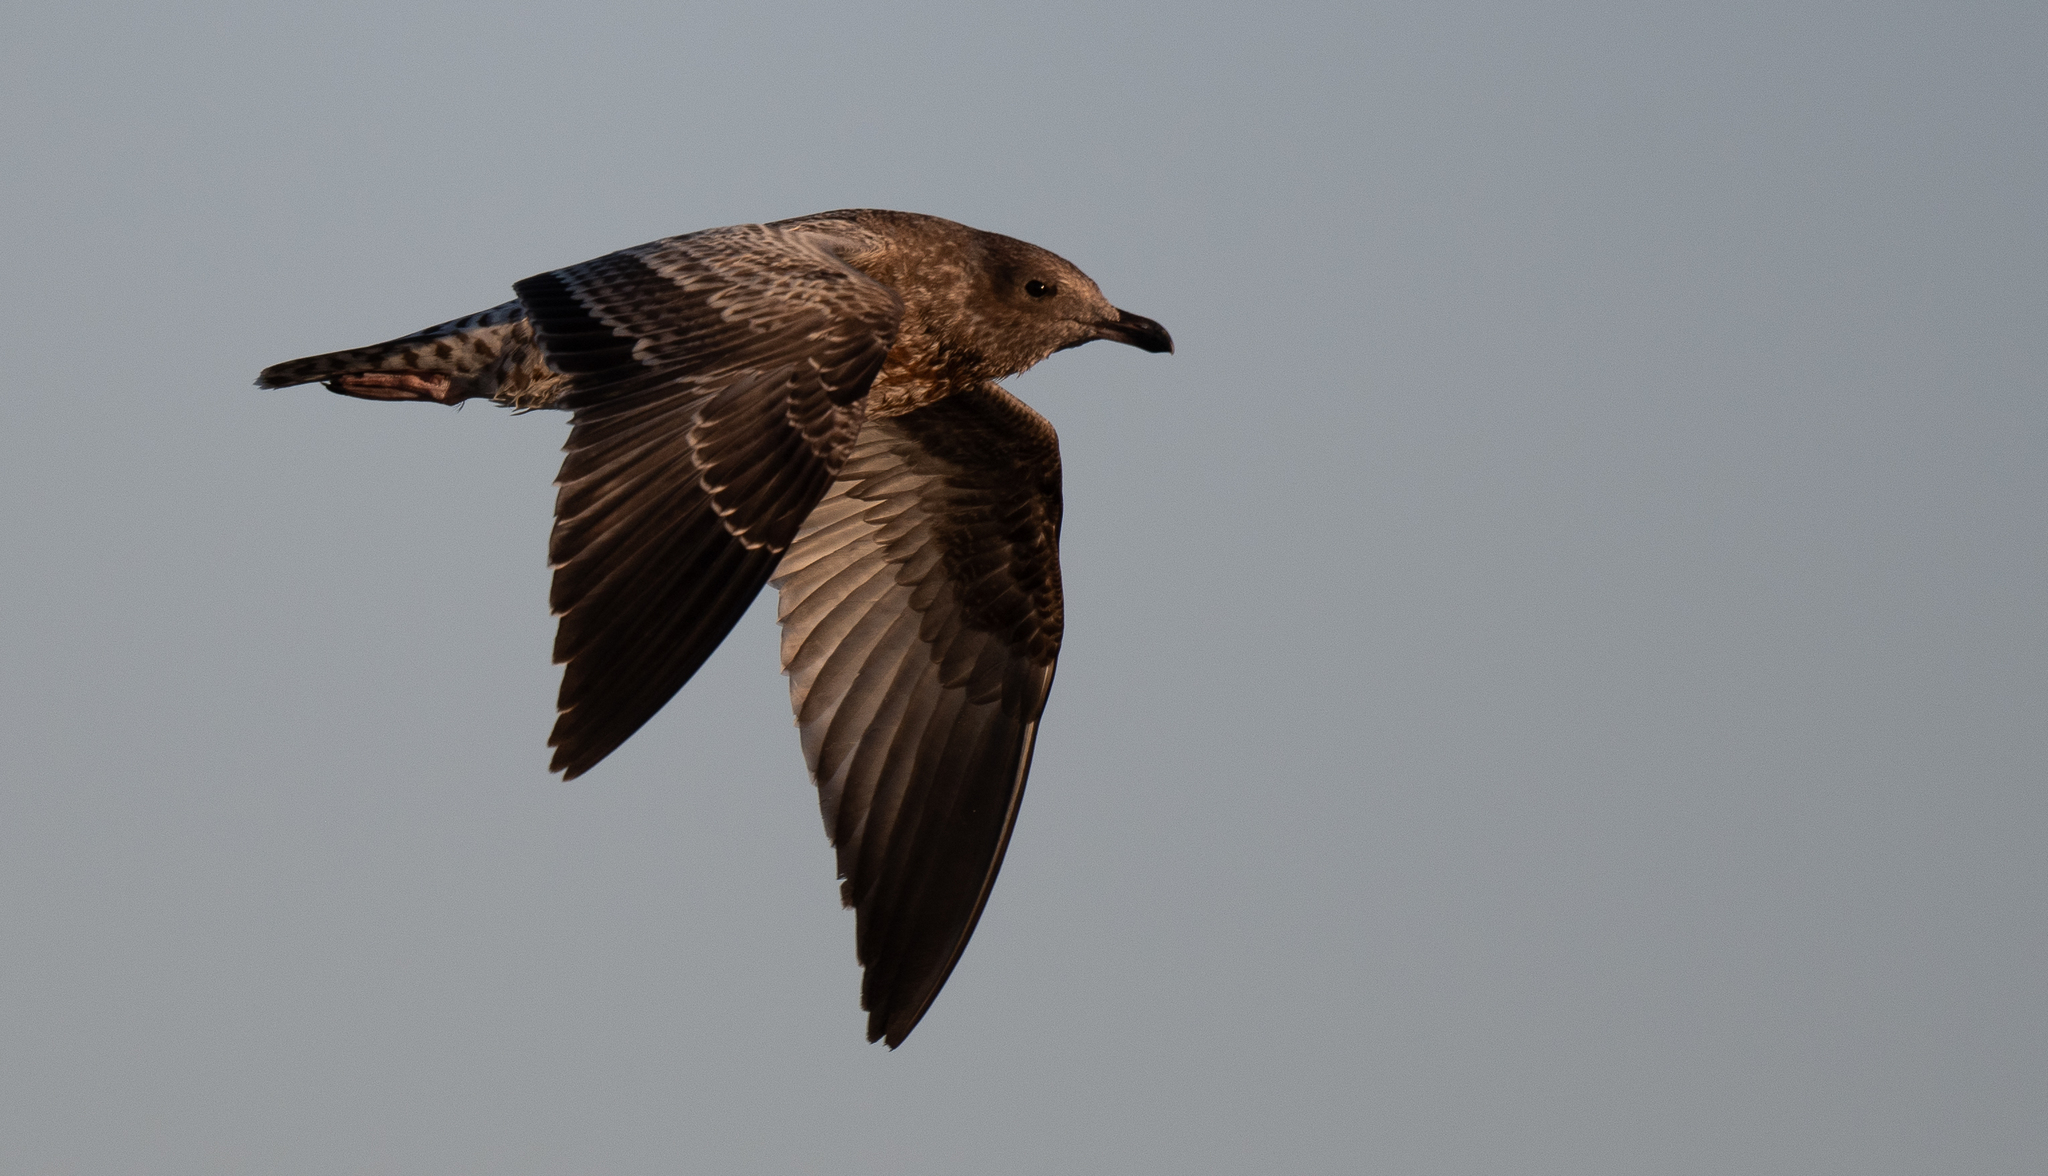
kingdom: Animalia
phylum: Chordata
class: Aves
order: Charadriiformes
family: Laridae
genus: Larus
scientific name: Larus californicus
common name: California gull
